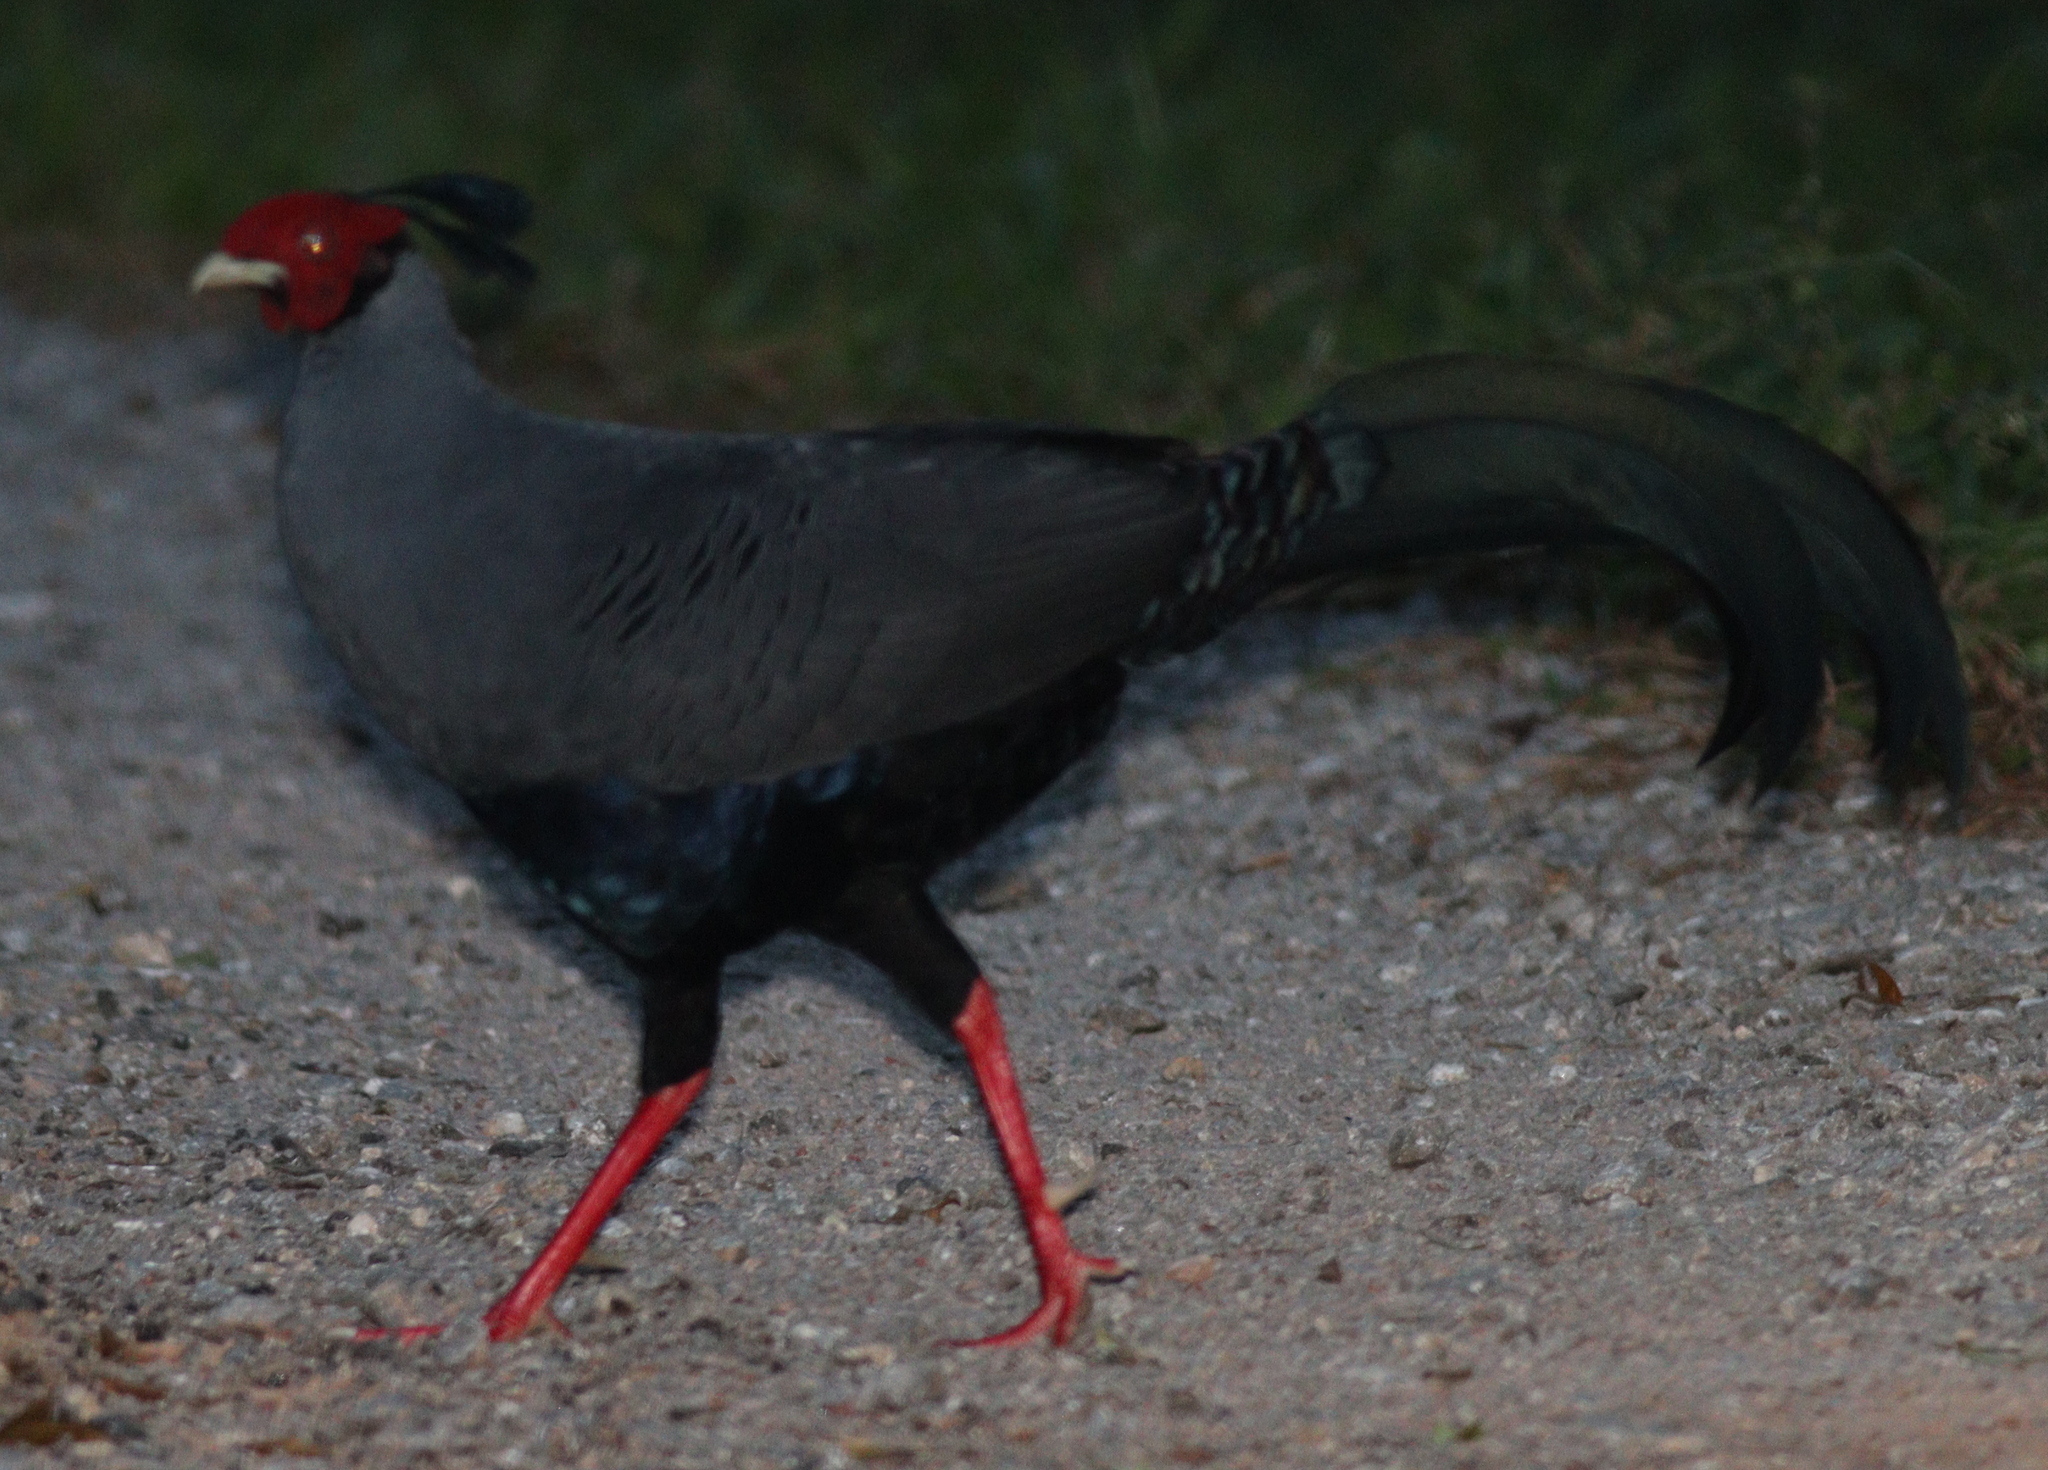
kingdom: Animalia
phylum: Chordata
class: Aves
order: Galliformes
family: Phasianidae
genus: Lophura
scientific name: Lophura diardi
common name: Siamese fireback
